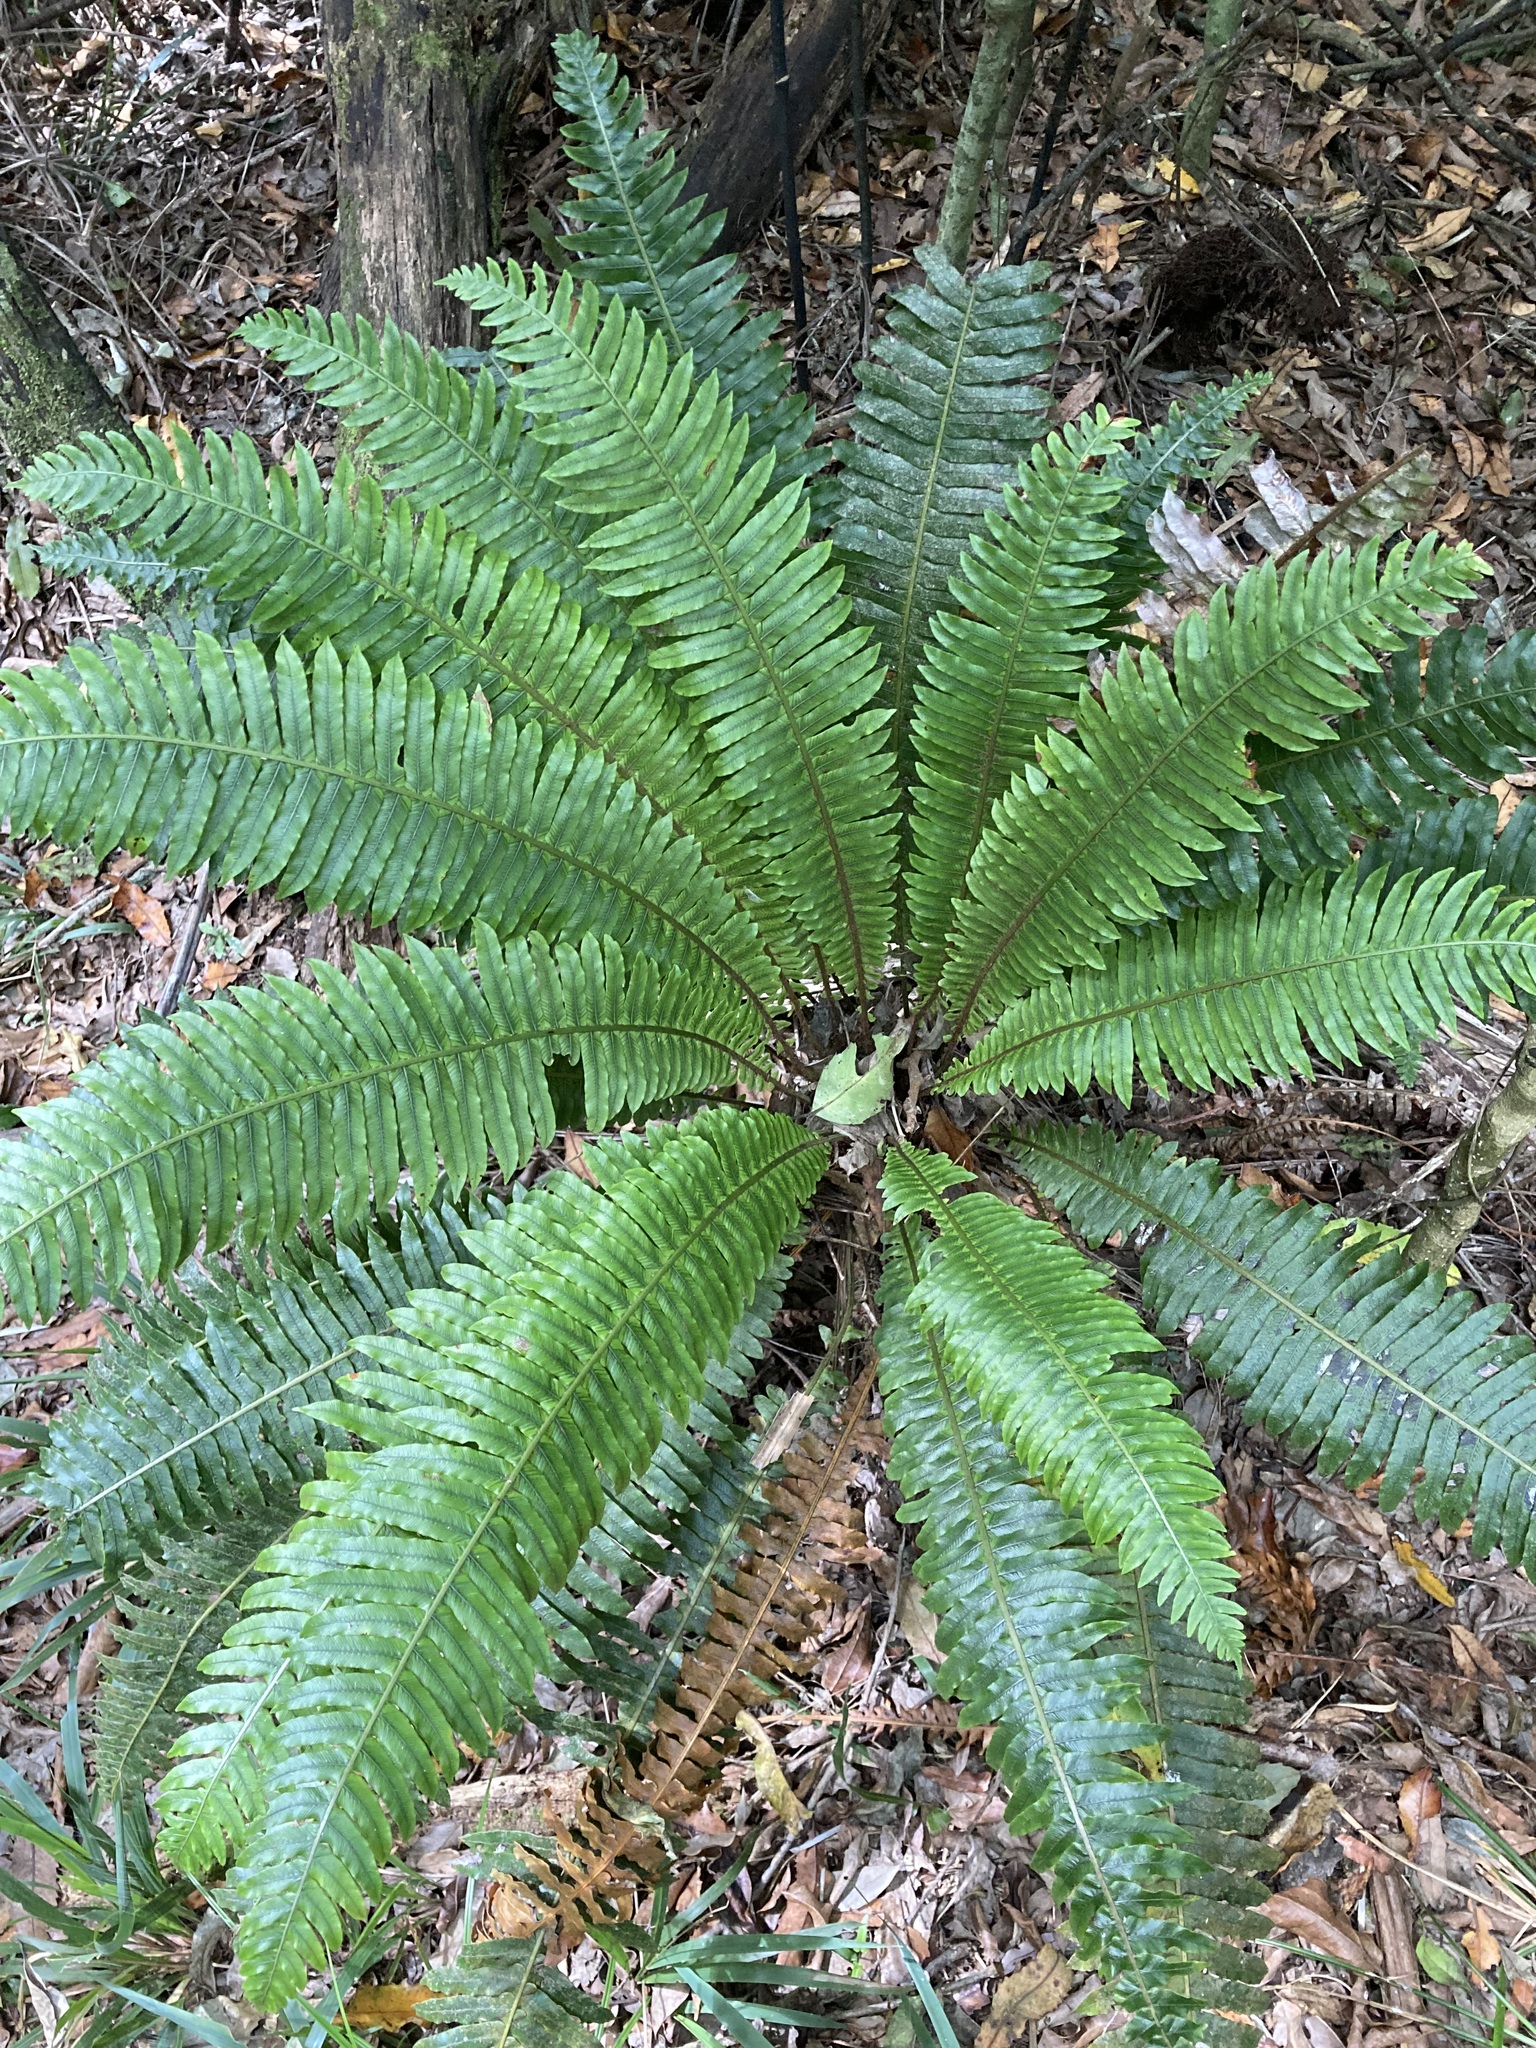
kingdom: Plantae
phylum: Tracheophyta
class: Polypodiopsida
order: Polypodiales
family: Blechnaceae
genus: Lomaria
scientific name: Lomaria discolor
